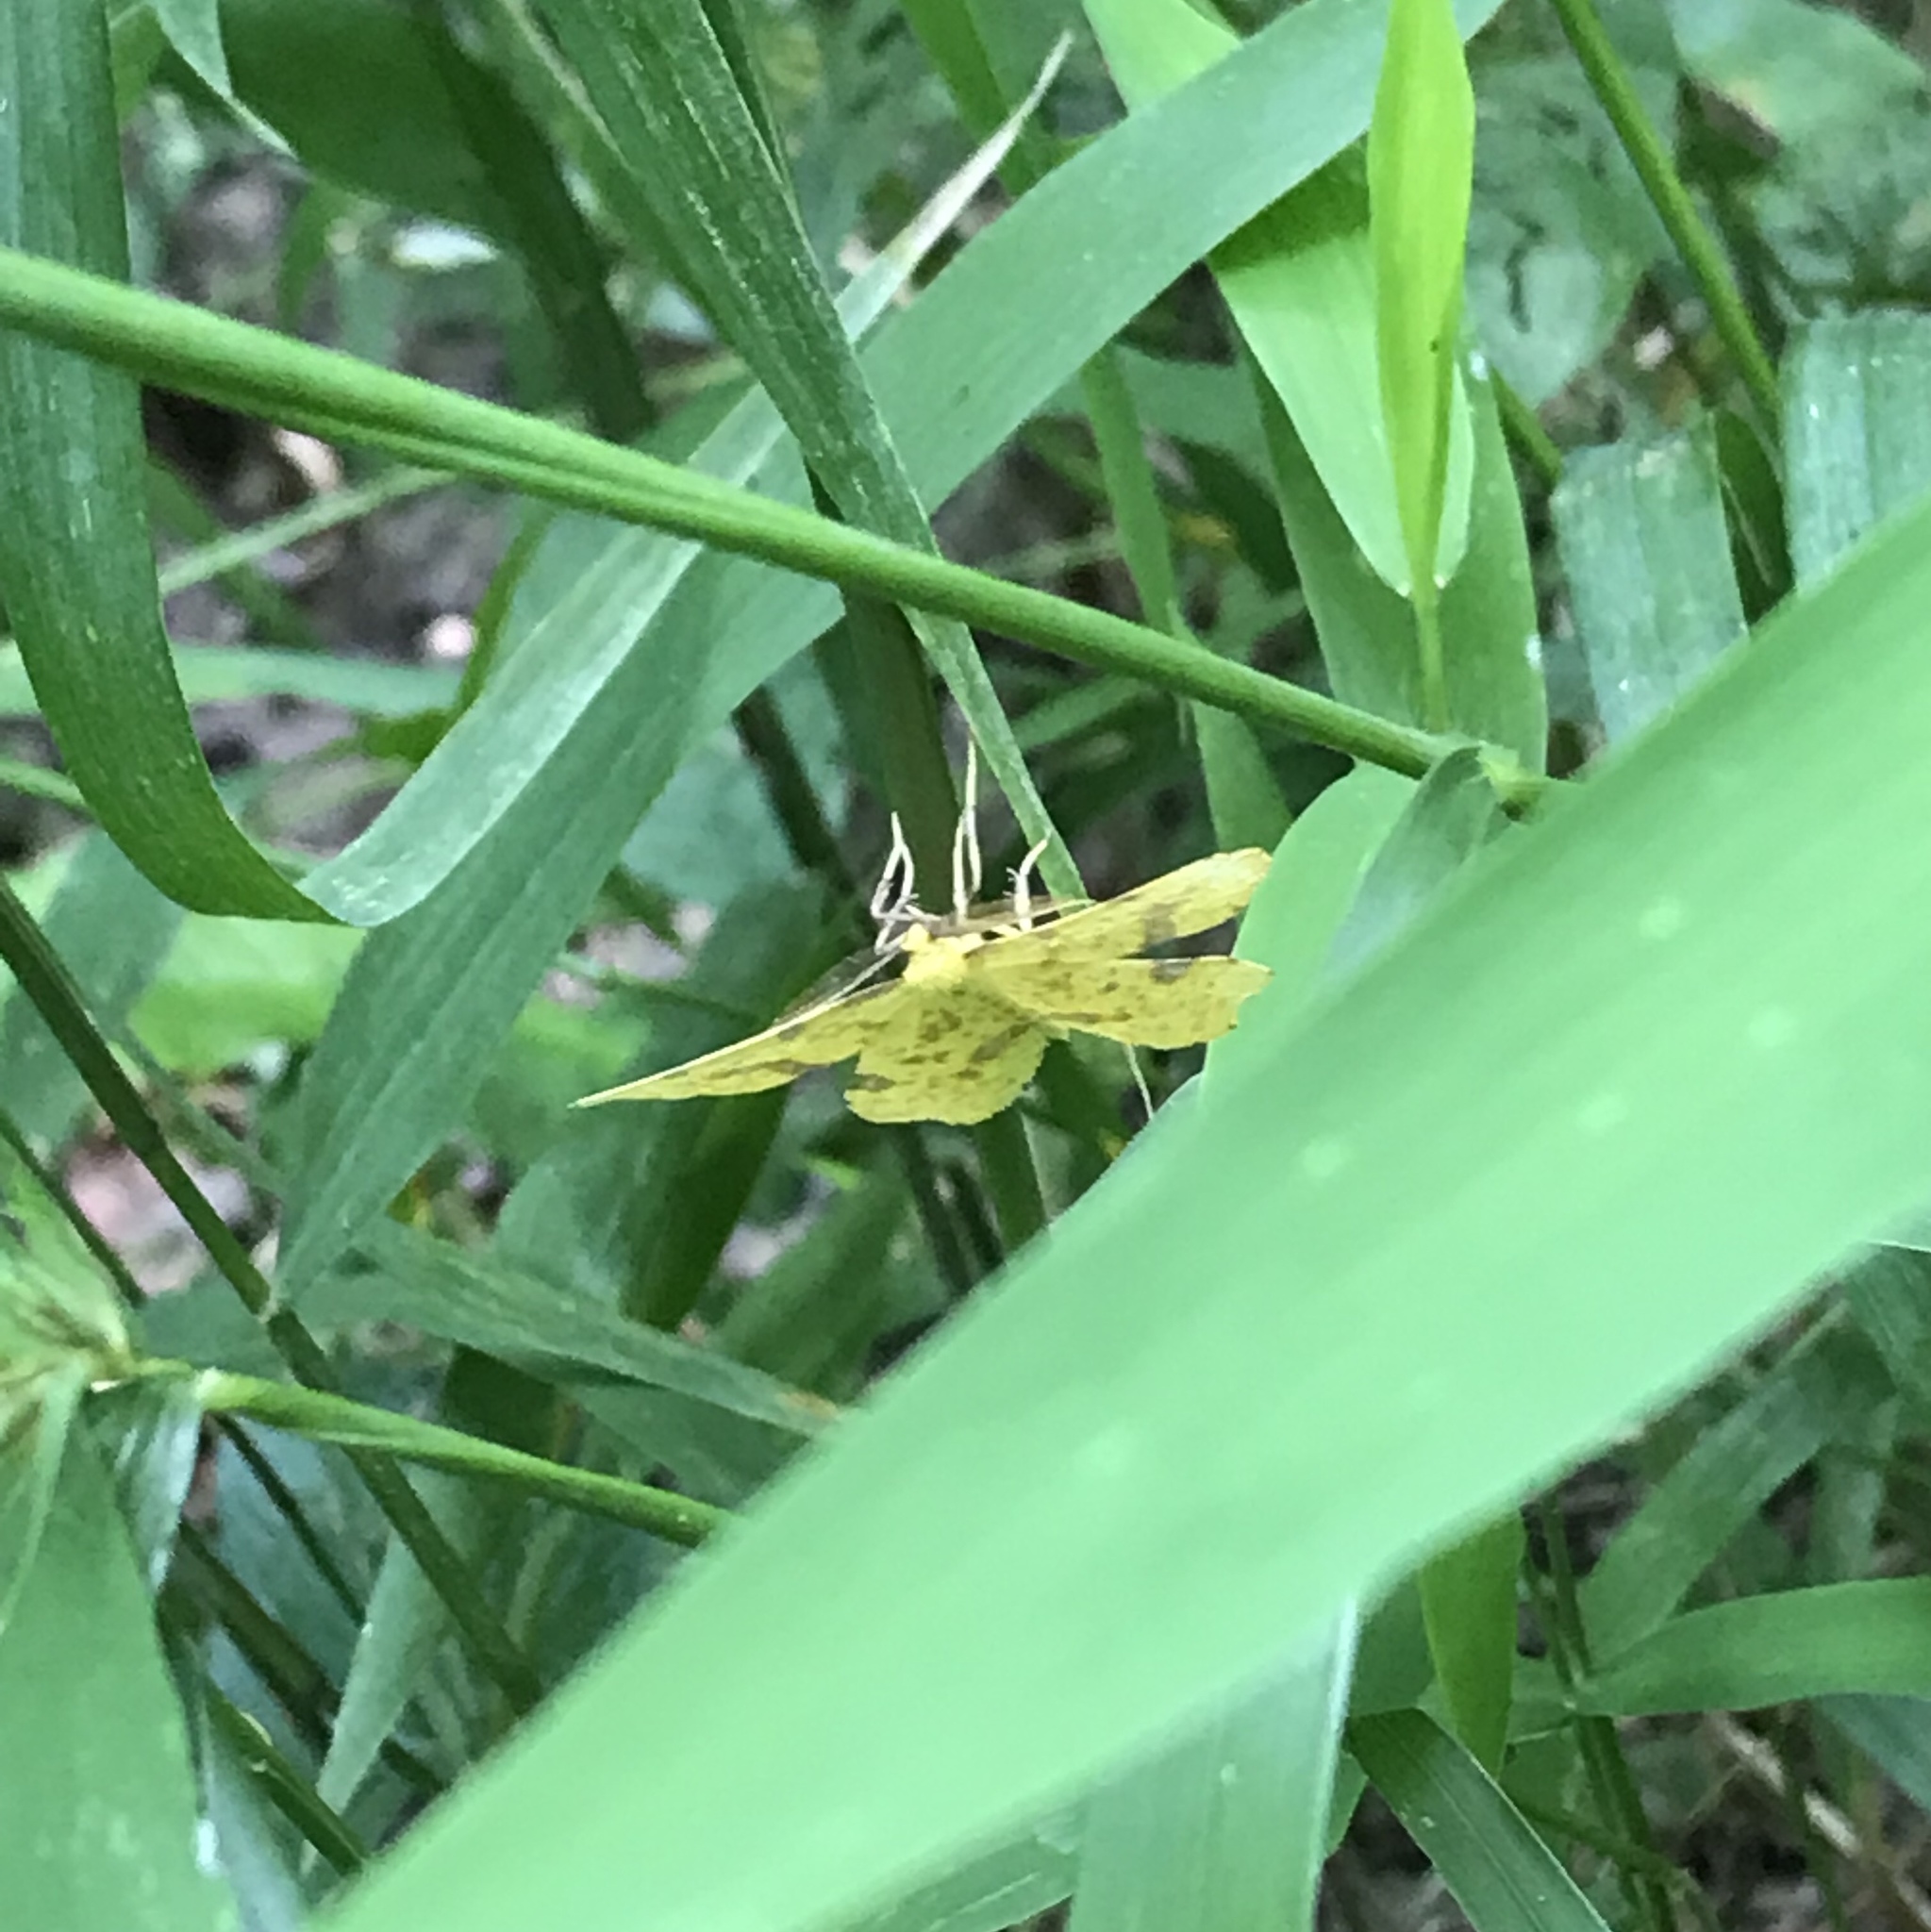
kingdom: Animalia
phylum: Arthropoda
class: Insecta
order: Lepidoptera
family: Geometridae
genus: Xanthotype
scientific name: Xanthotype
